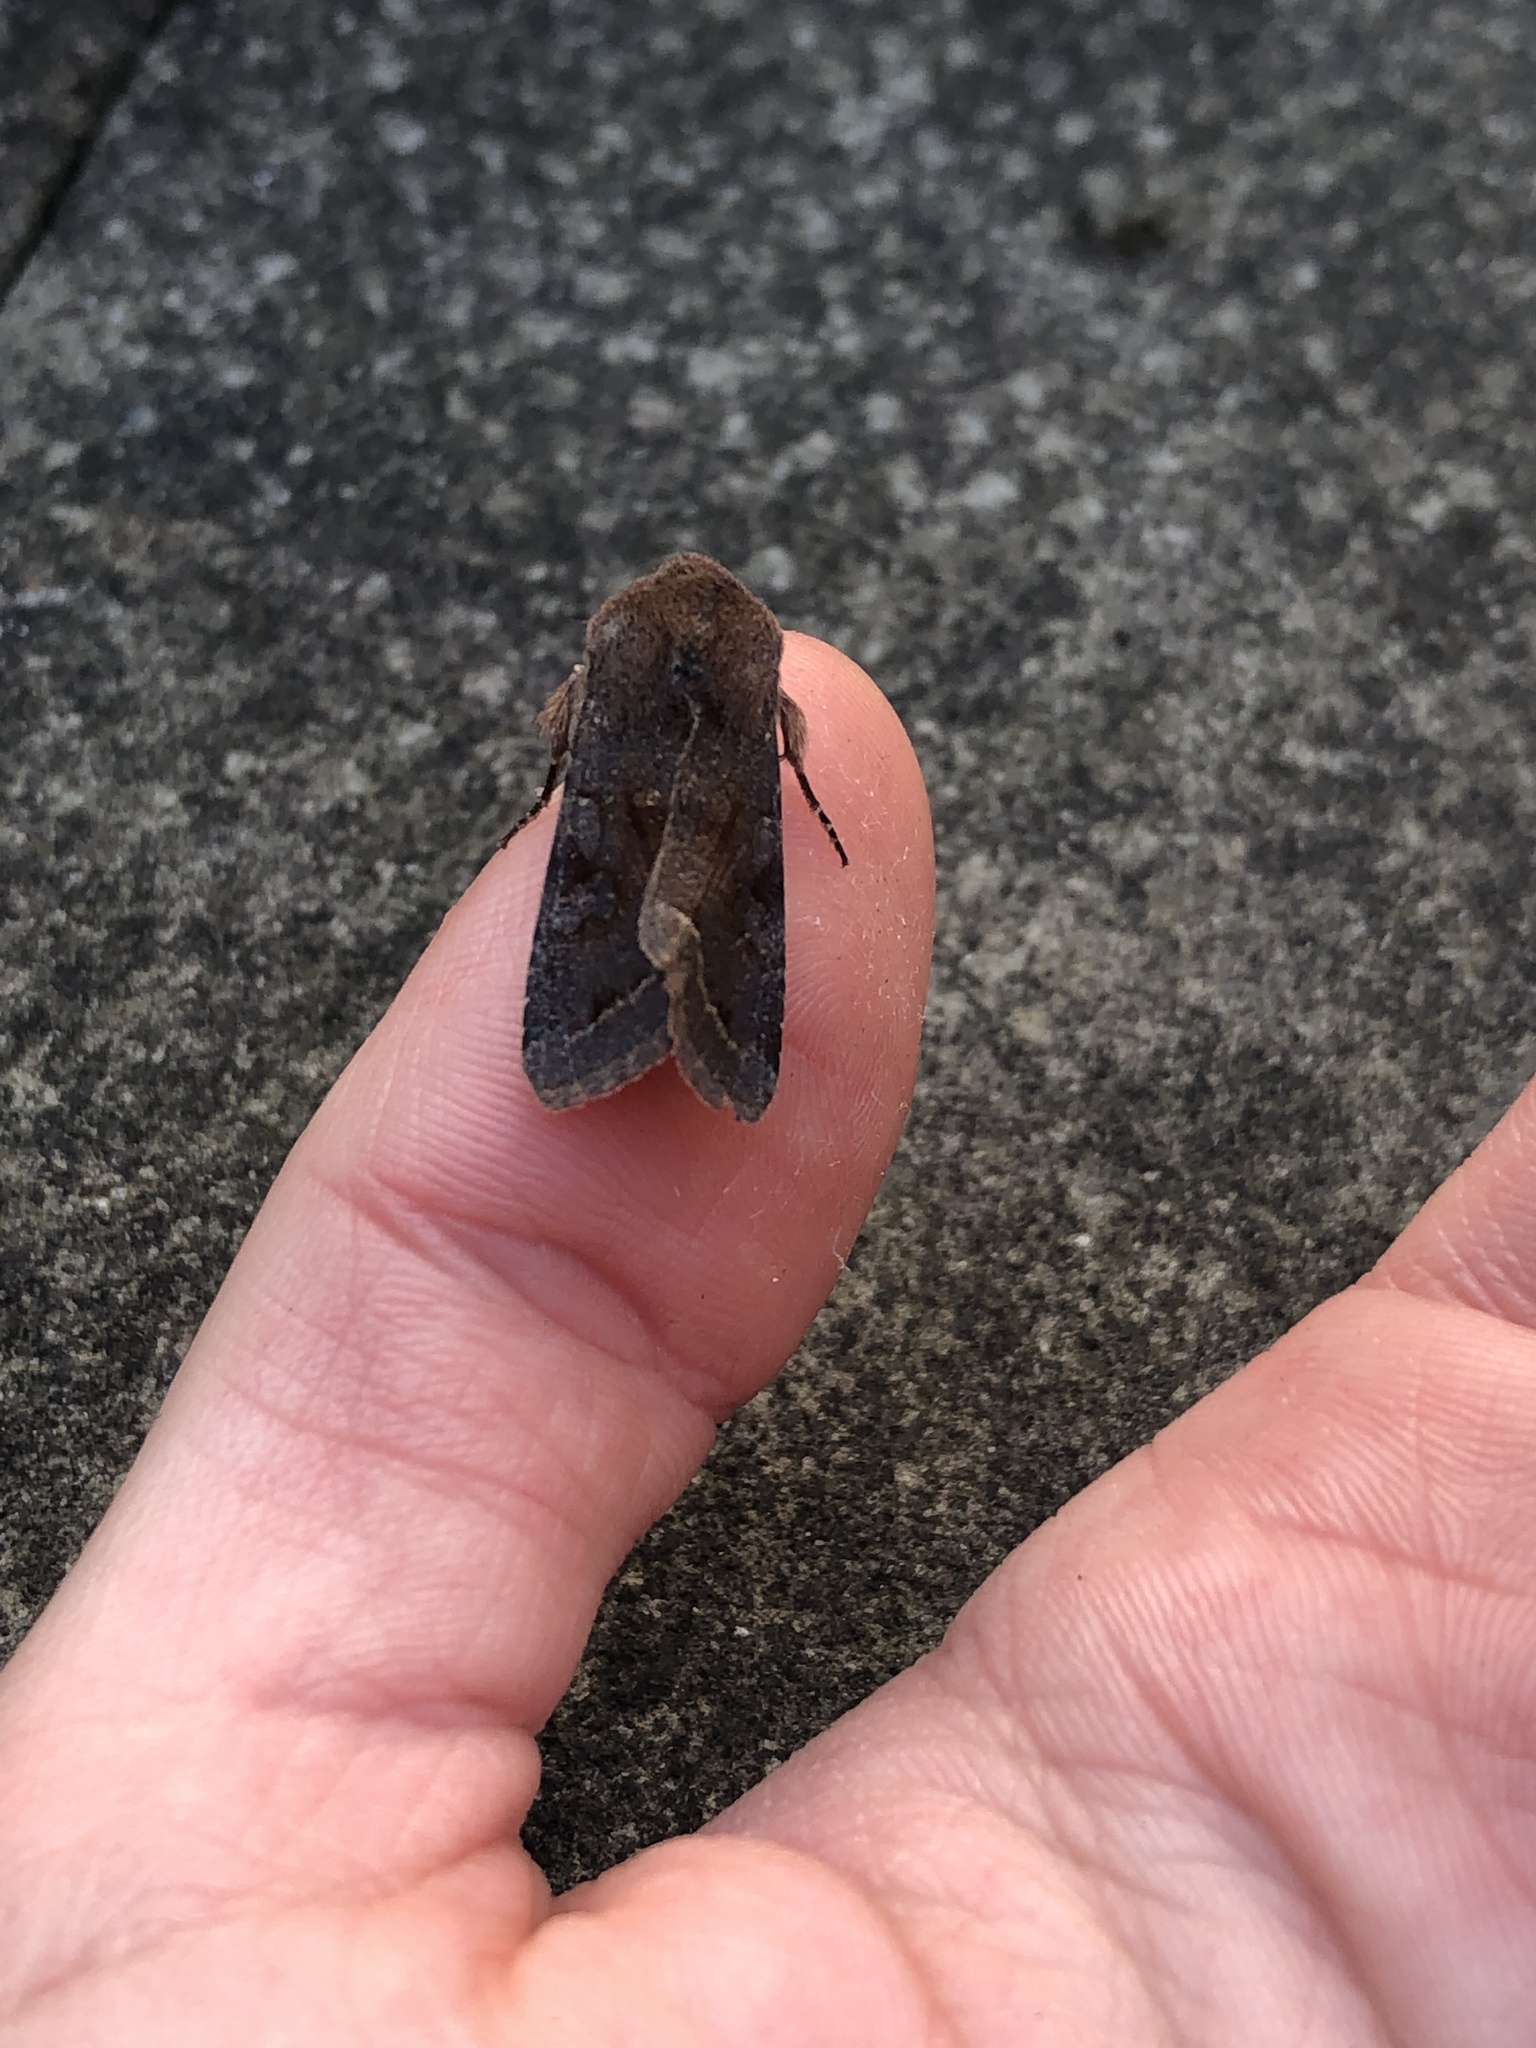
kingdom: Animalia
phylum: Arthropoda
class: Insecta
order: Lepidoptera
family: Noctuidae
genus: Orthosia
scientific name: Orthosia incerta
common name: Clouded drab
